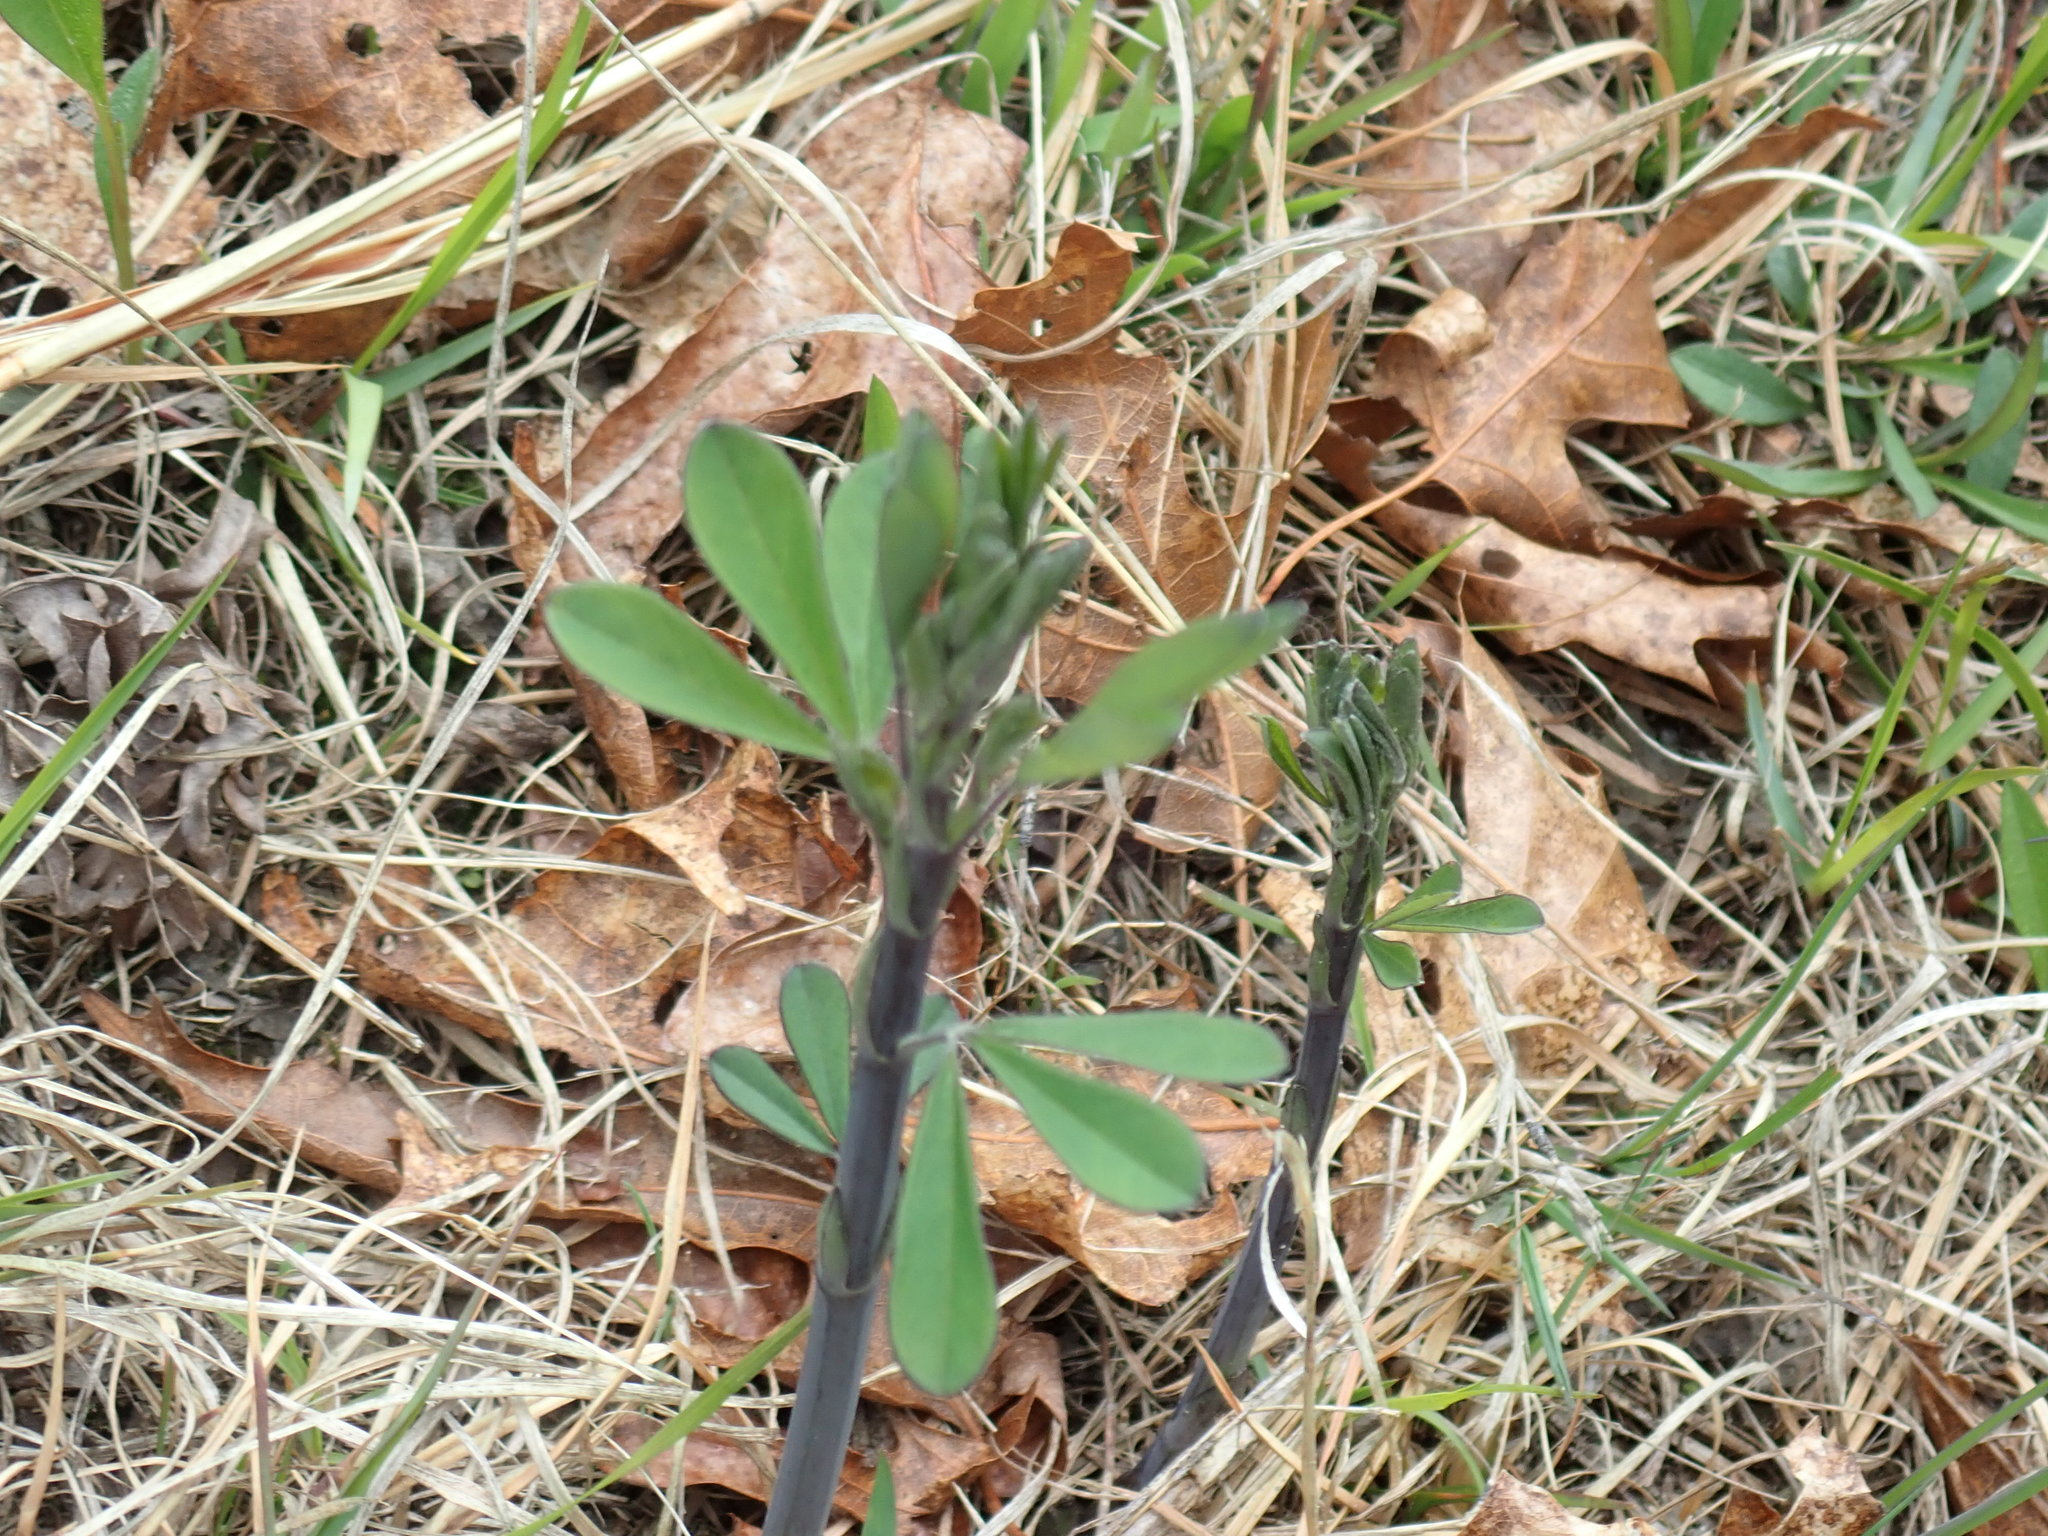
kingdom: Plantae
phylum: Tracheophyta
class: Magnoliopsida
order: Fabales
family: Fabaceae
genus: Baptisia
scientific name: Baptisia tinctoria
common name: Wild indigo
